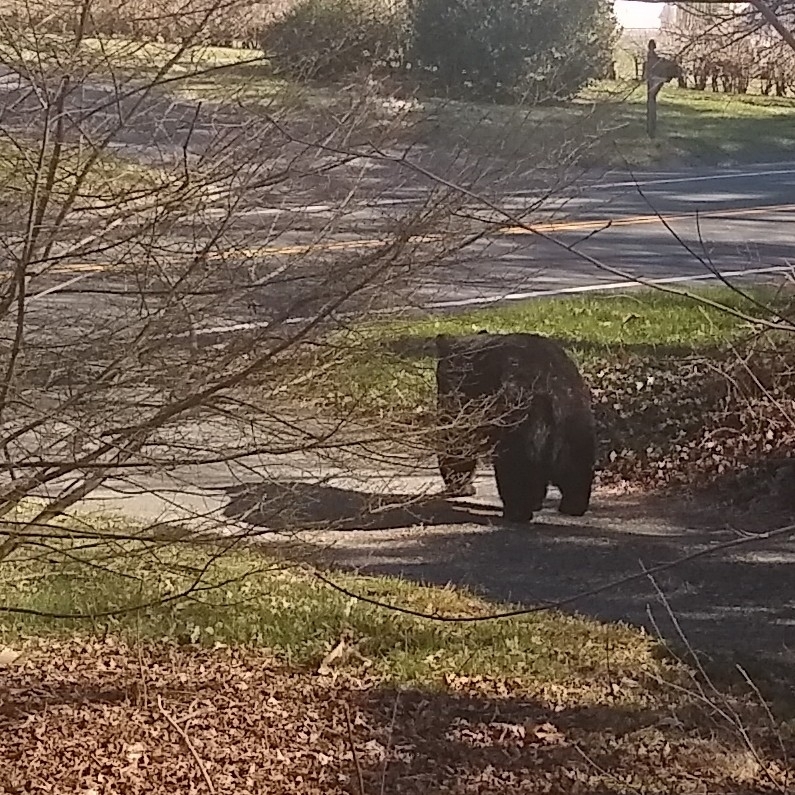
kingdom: Animalia
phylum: Chordata
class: Mammalia
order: Carnivora
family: Ursidae
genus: Ursus
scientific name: Ursus americanus
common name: American black bear
